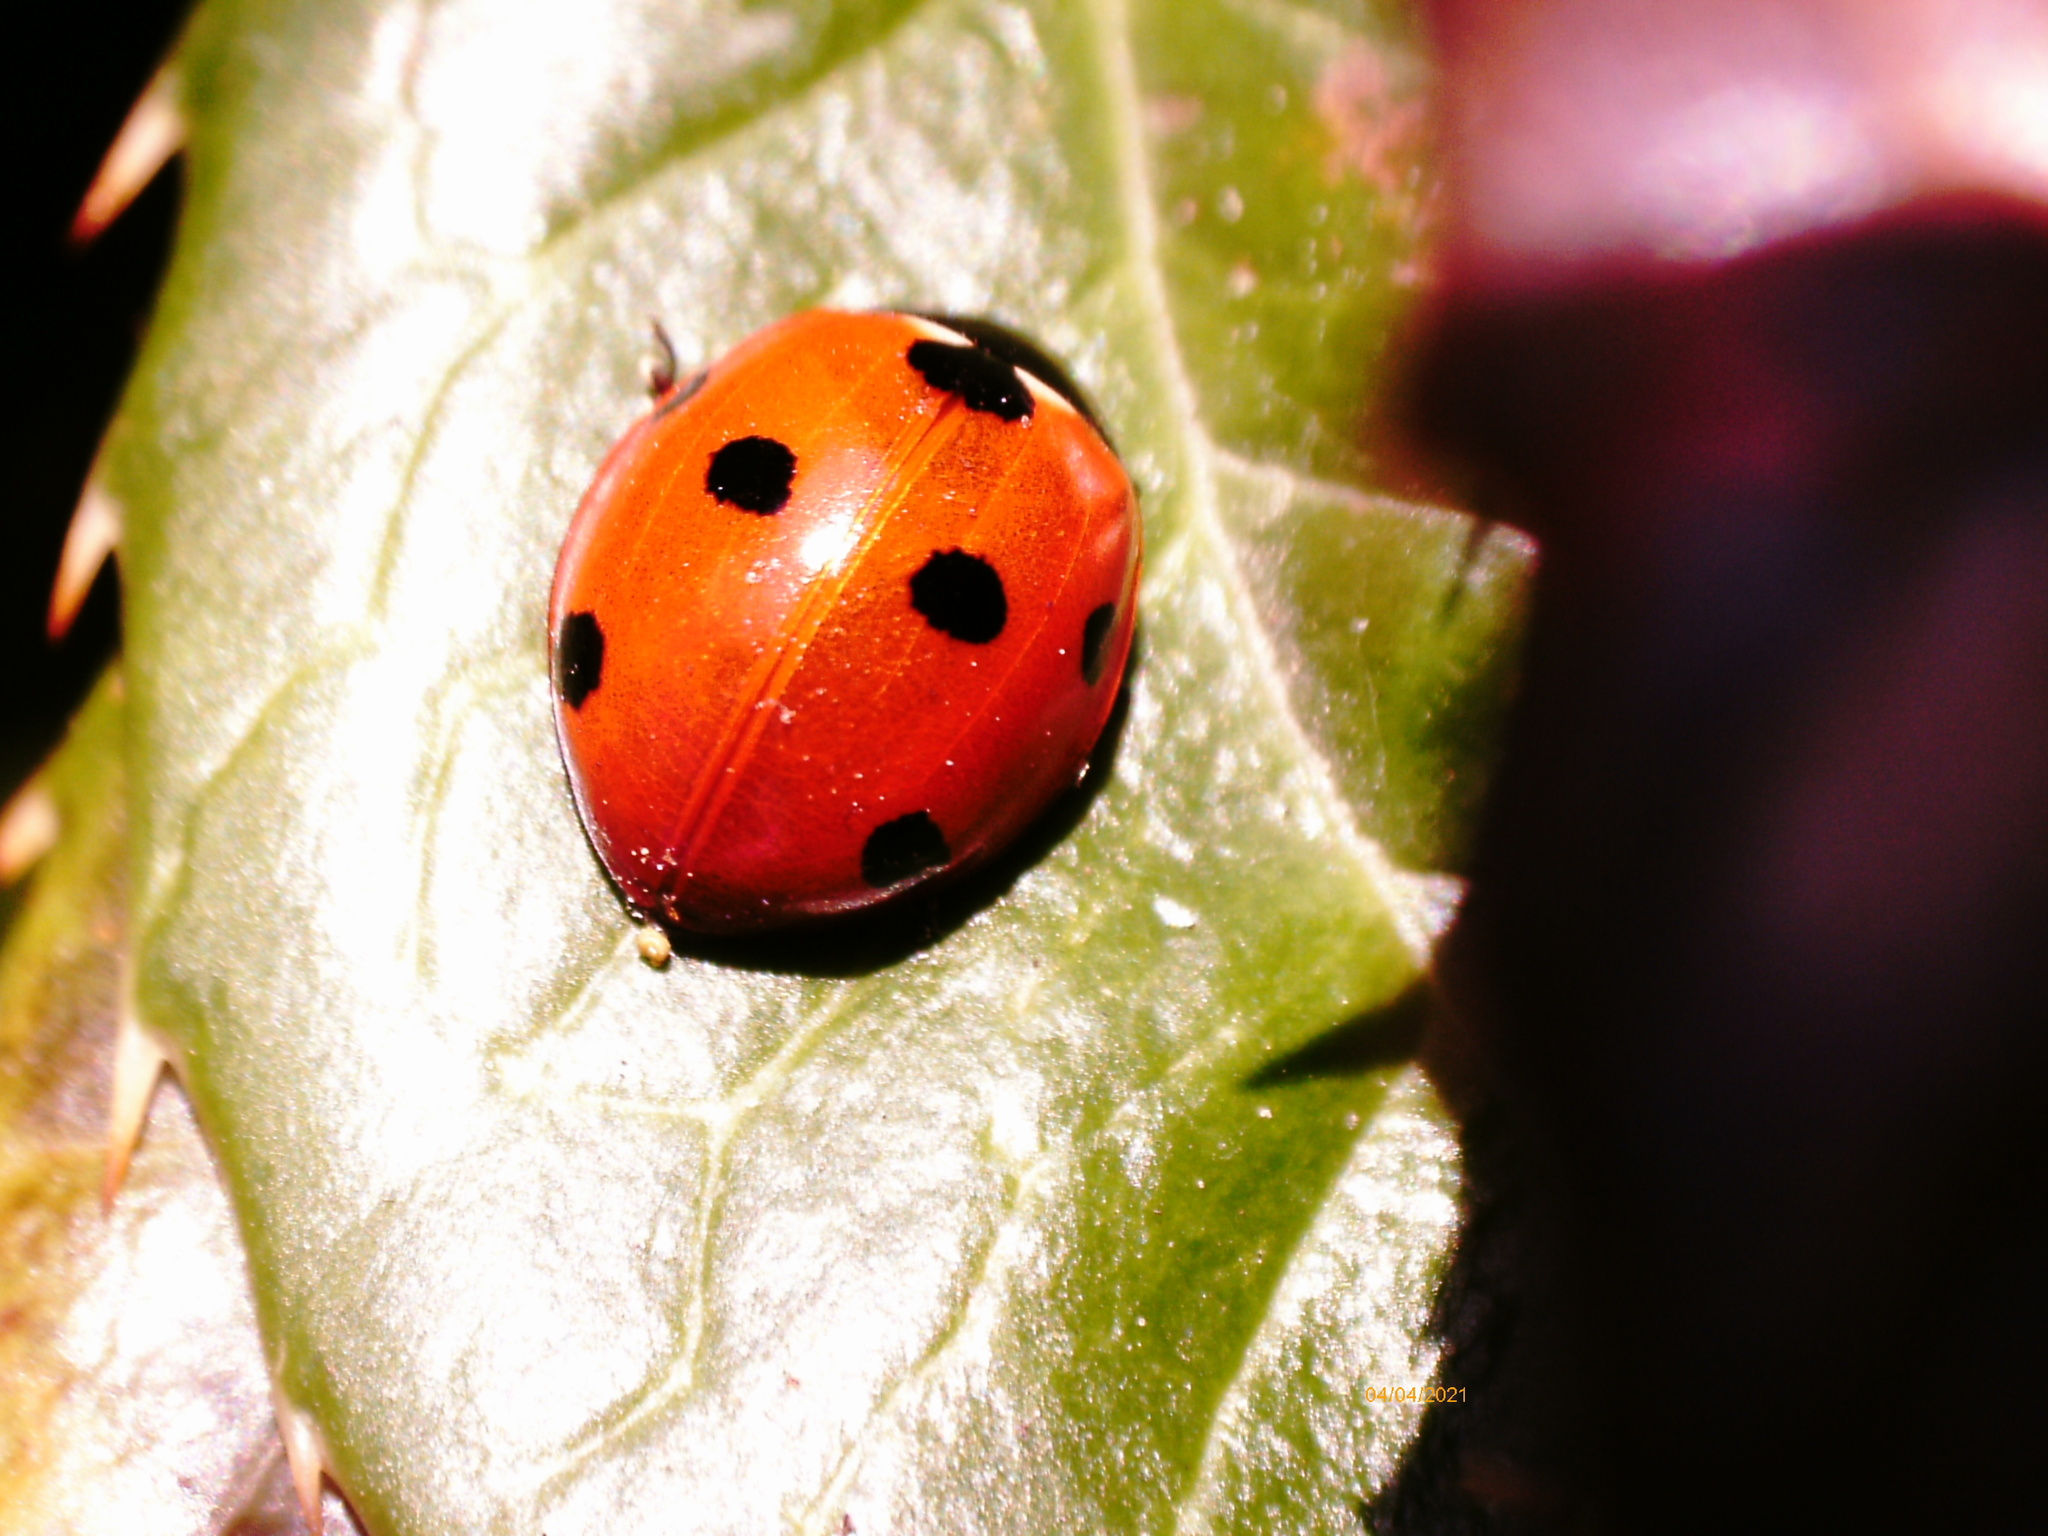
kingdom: Animalia
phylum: Arthropoda
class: Insecta
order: Coleoptera
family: Coccinellidae
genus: Coccinella
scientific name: Coccinella septempunctata
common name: Sevenspotted lady beetle
